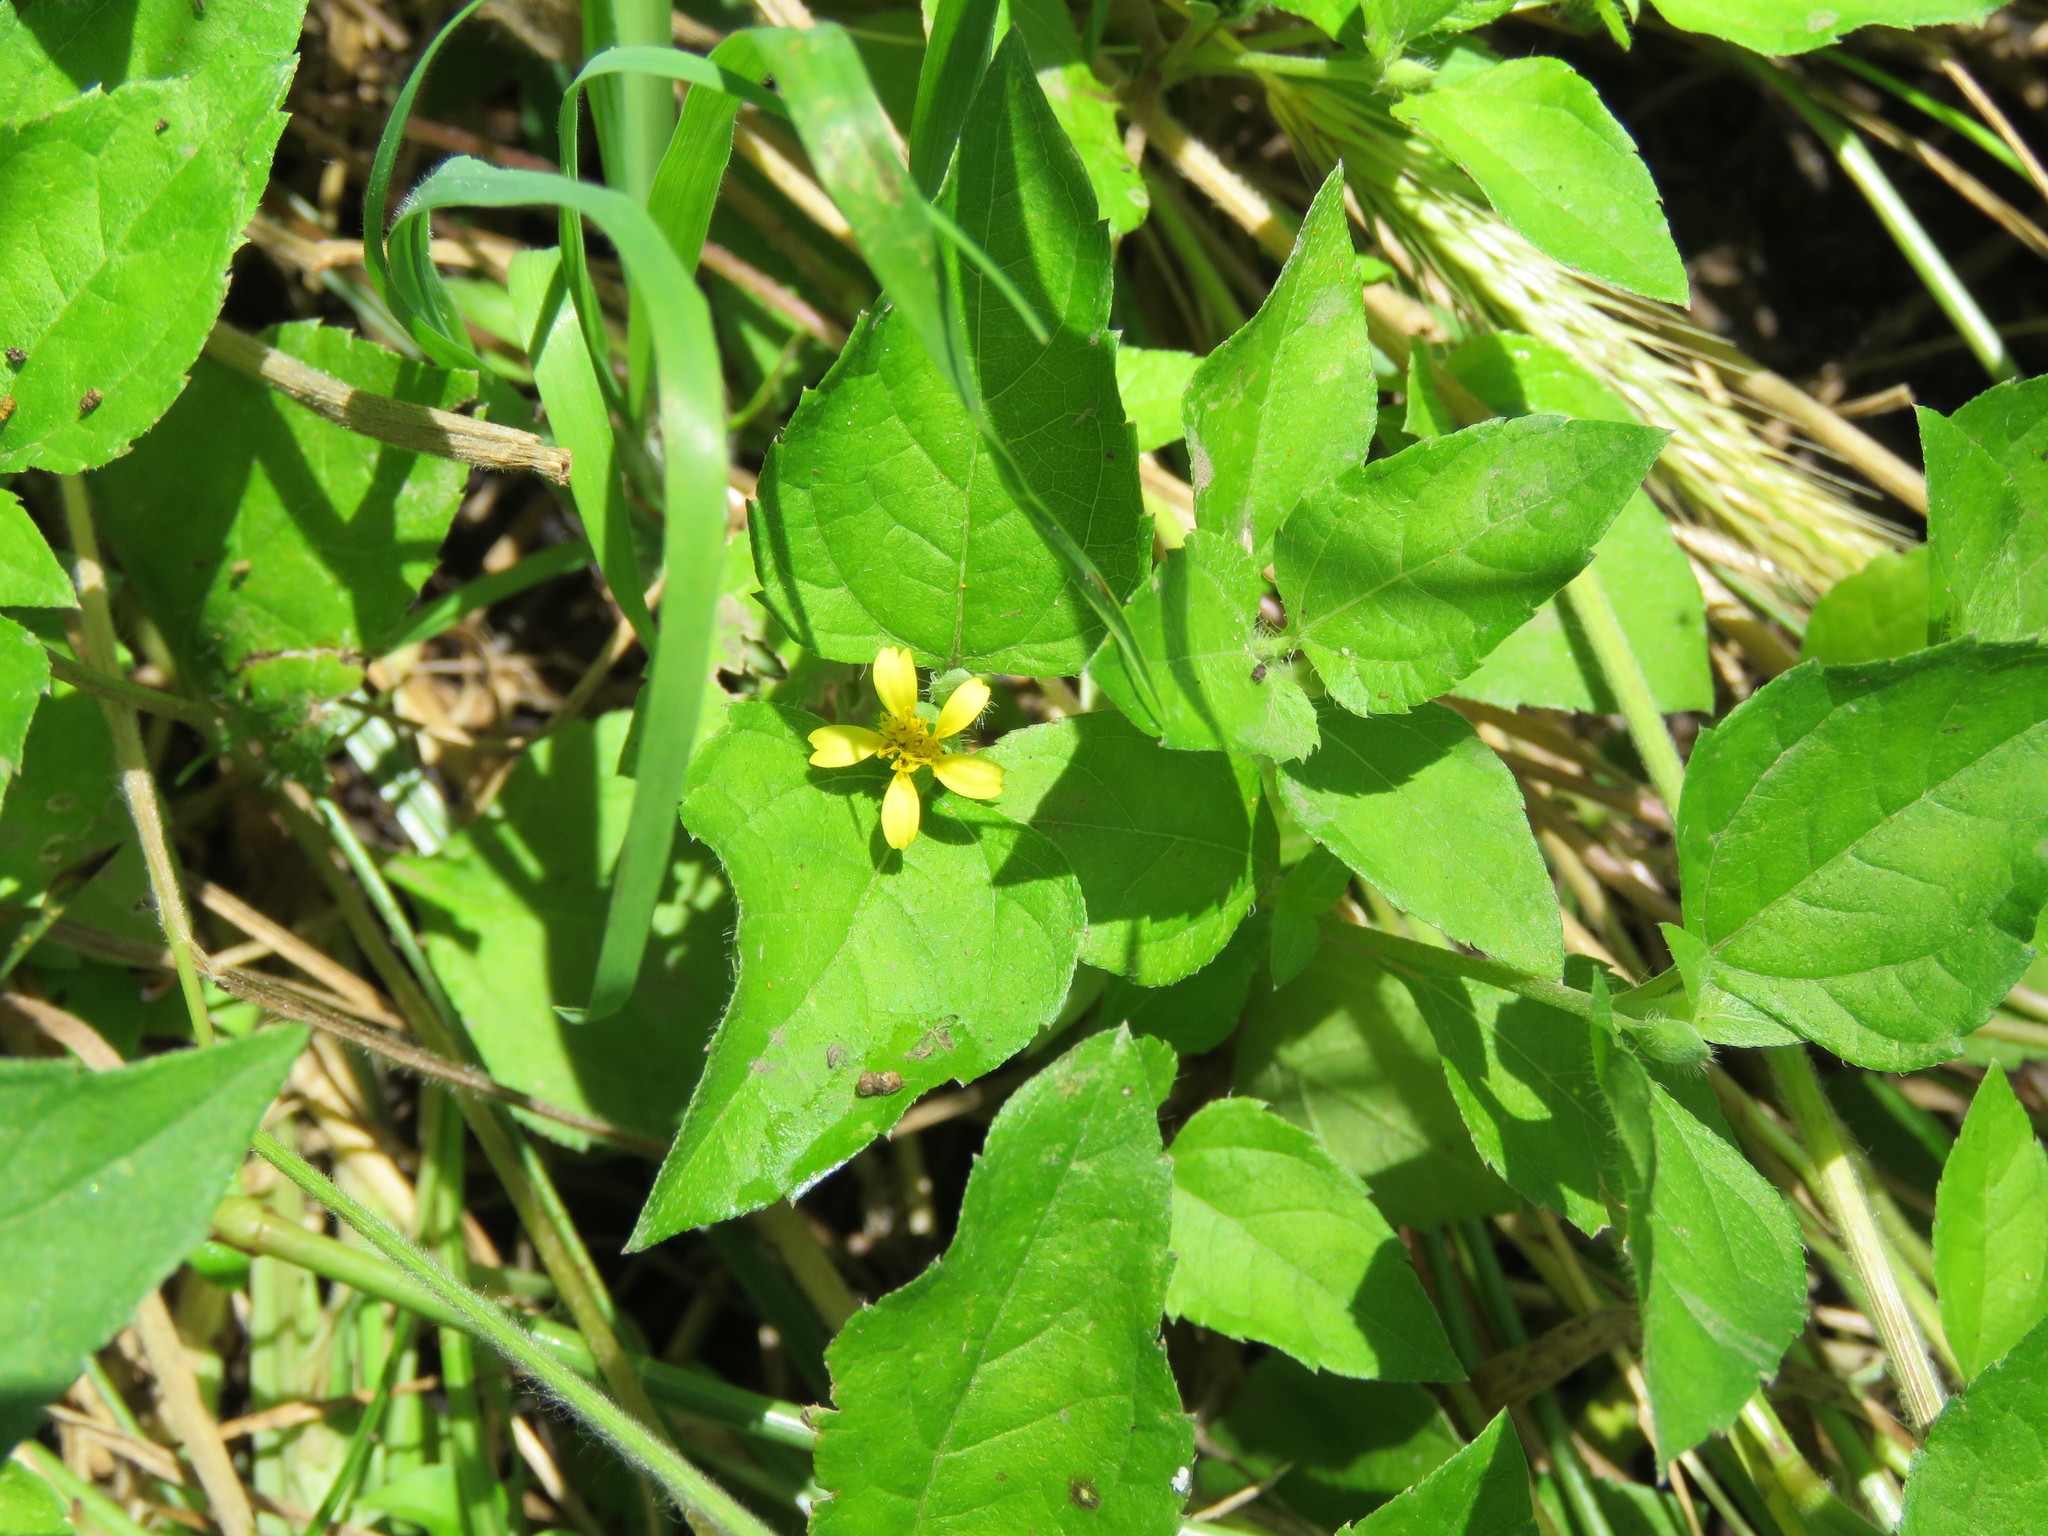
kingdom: Plantae
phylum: Tracheophyta
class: Magnoliopsida
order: Asterales
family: Asteraceae
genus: Calyptocarpus
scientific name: Calyptocarpus vialis
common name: Straggler daisy
